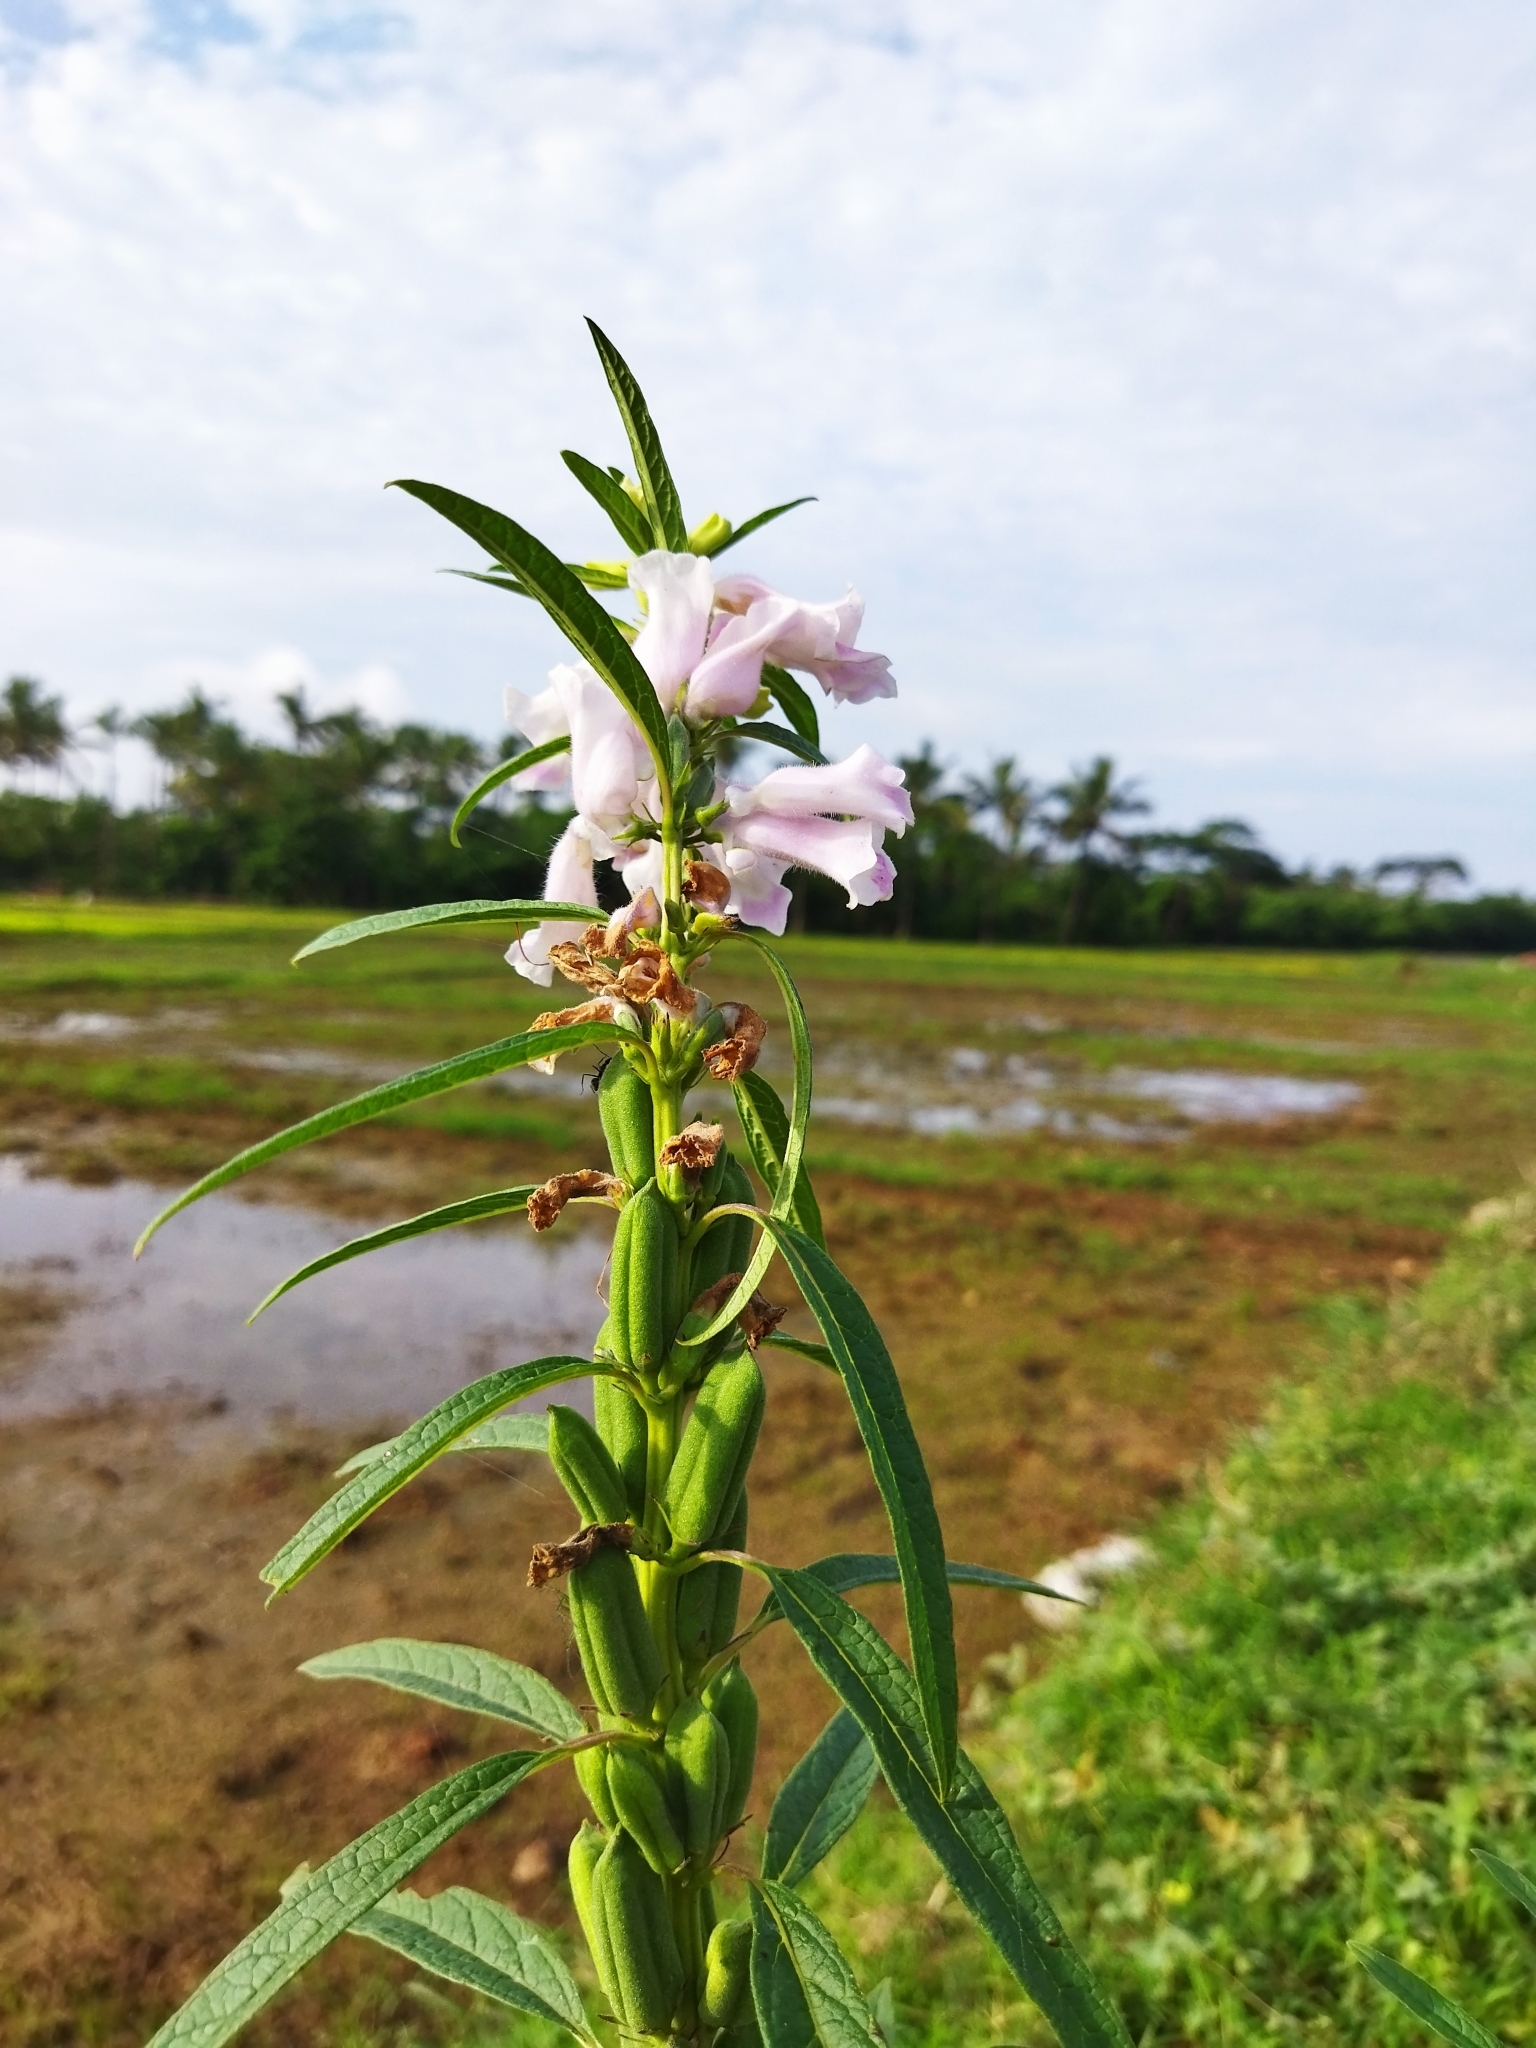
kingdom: Plantae
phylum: Tracheophyta
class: Magnoliopsida
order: Lamiales
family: Pedaliaceae
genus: Sesamum
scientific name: Sesamum indicum
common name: Sesame
